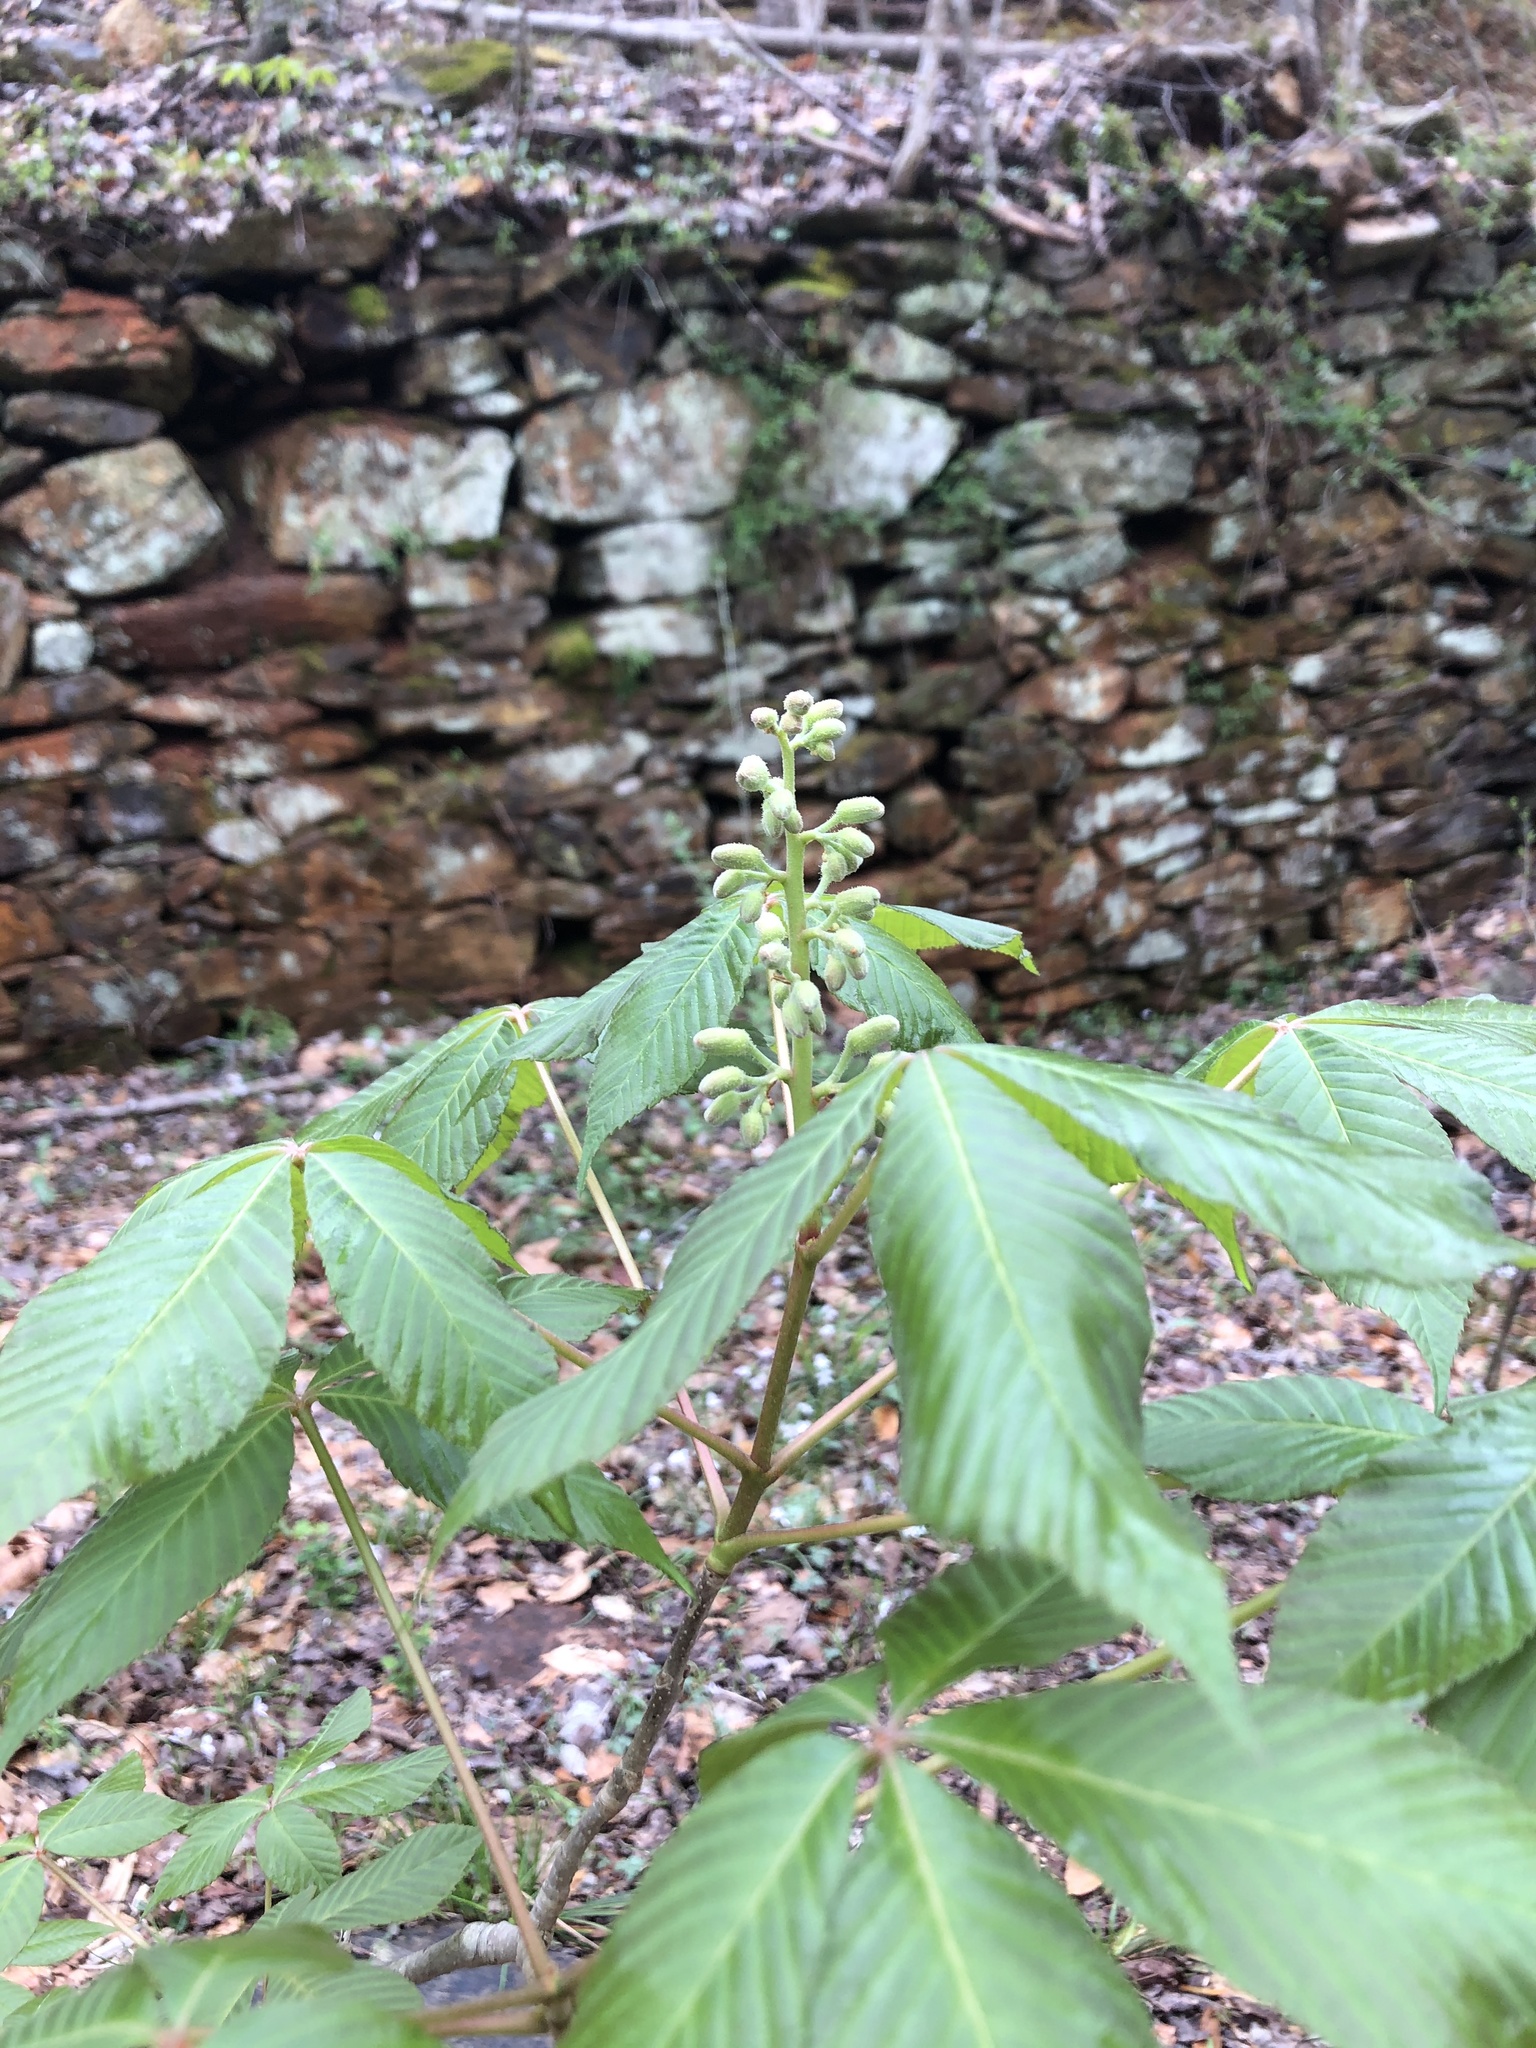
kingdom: Plantae
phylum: Tracheophyta
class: Magnoliopsida
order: Sapindales
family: Sapindaceae
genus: Aesculus
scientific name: Aesculus sylvatica
